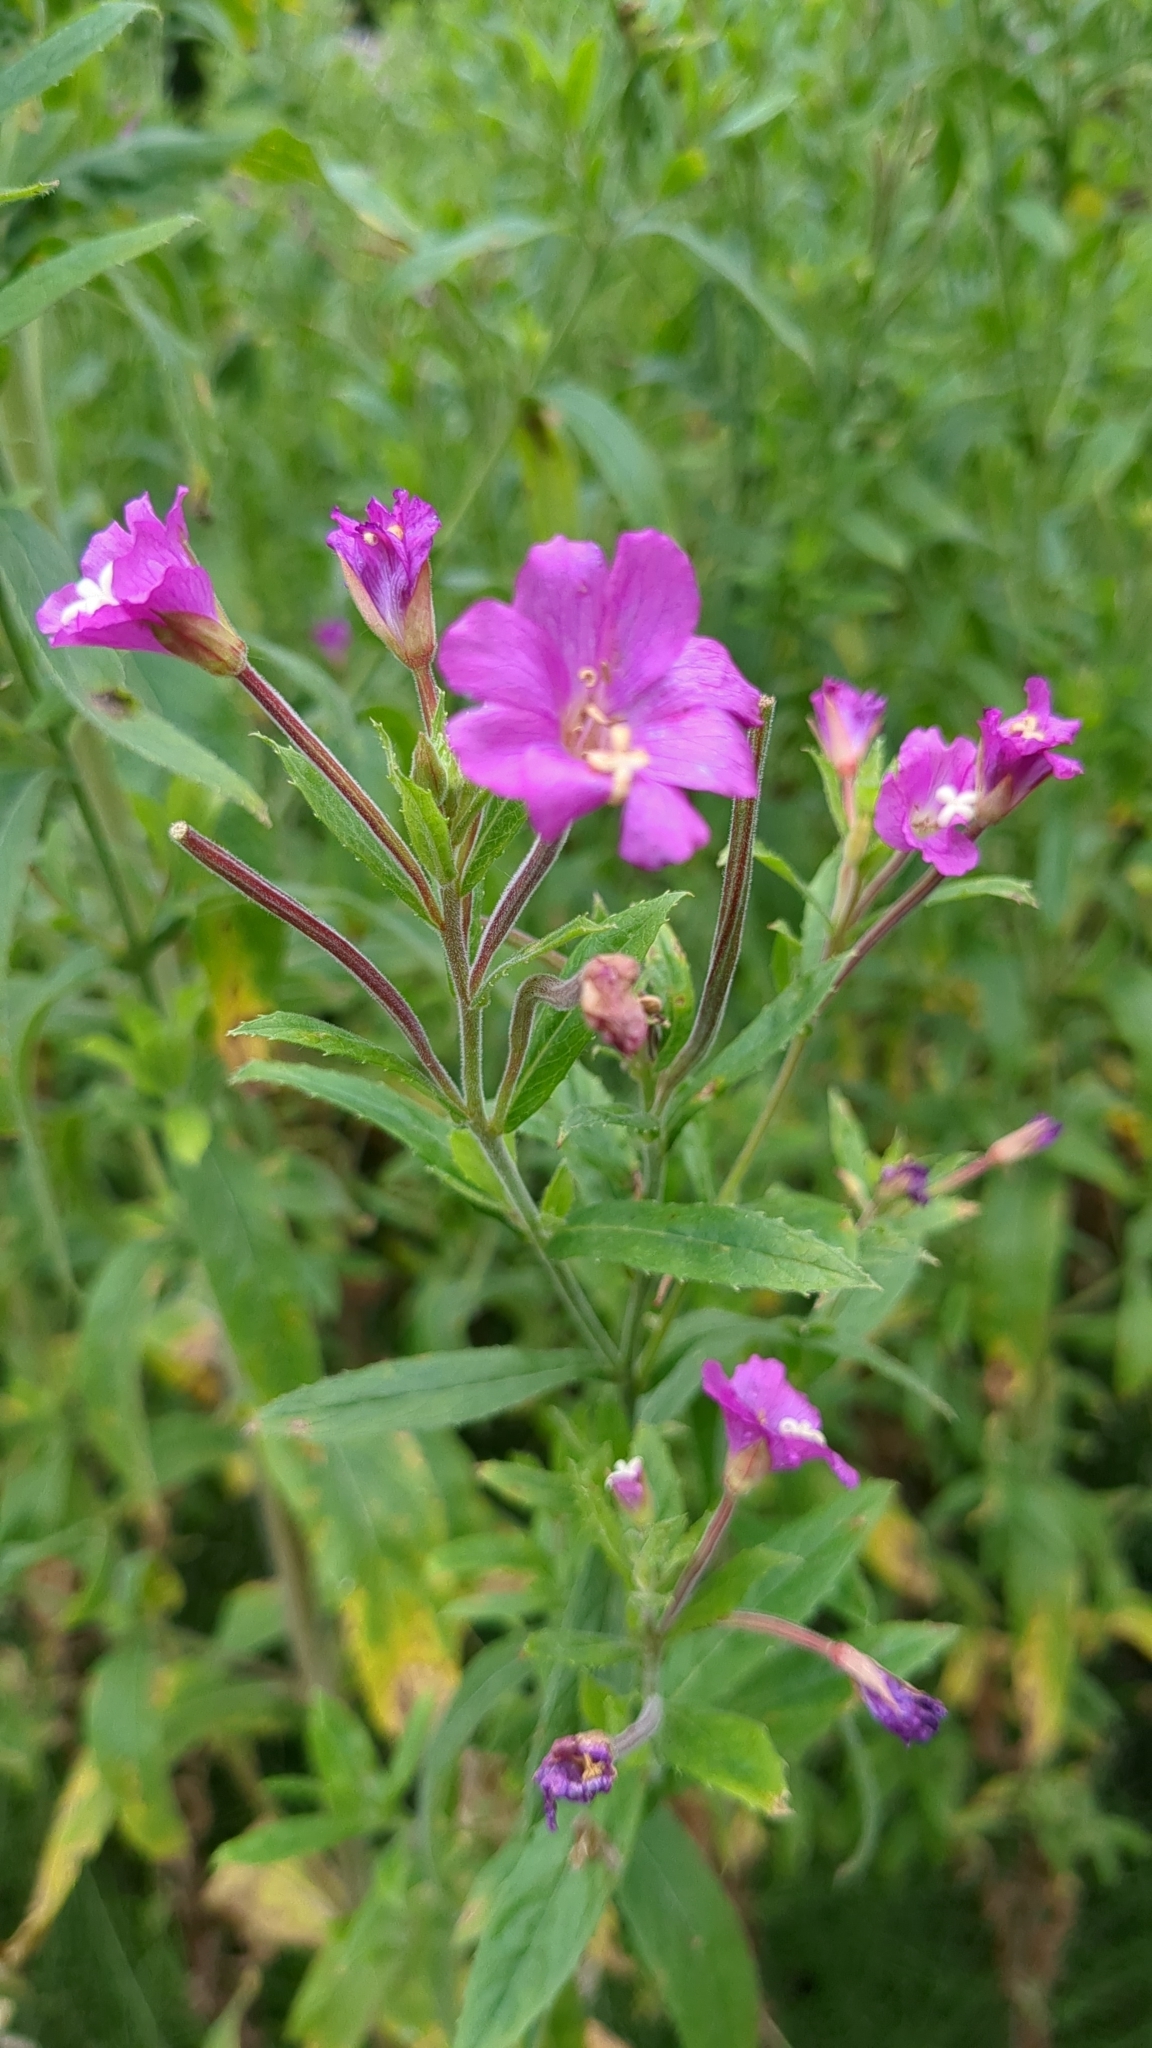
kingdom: Plantae
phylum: Tracheophyta
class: Magnoliopsida
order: Myrtales
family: Onagraceae
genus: Epilobium
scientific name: Epilobium hirsutum
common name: Great willowherb
